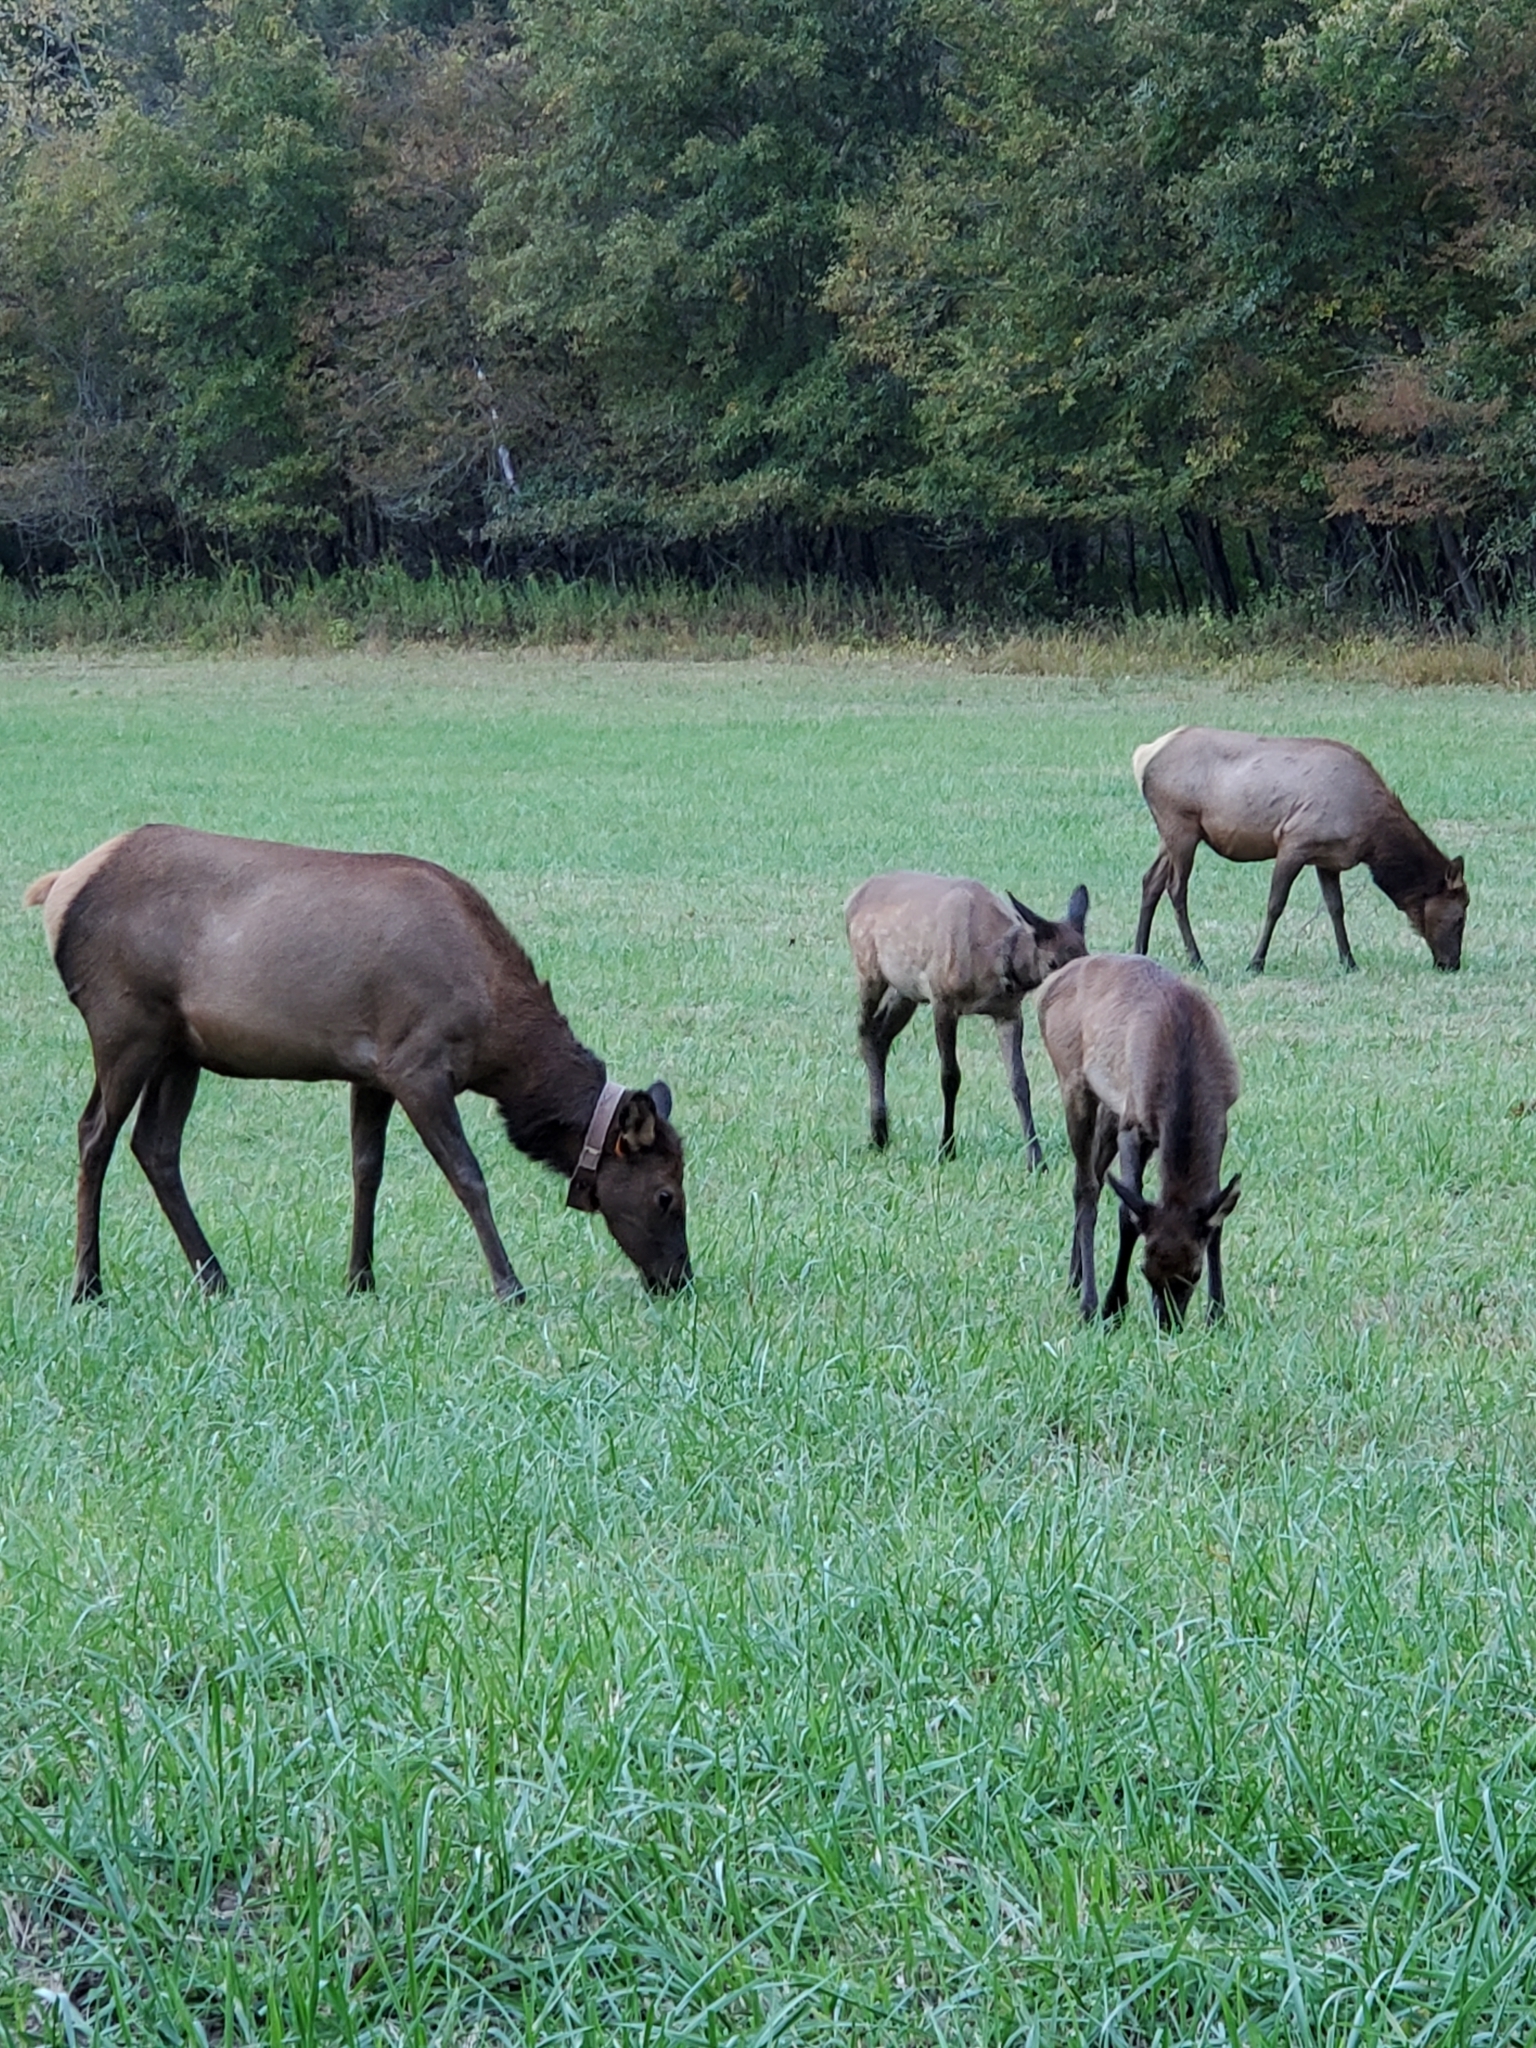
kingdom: Animalia
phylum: Chordata
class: Mammalia
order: Artiodactyla
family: Cervidae
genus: Cervus
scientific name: Cervus elaphus
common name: Red deer
